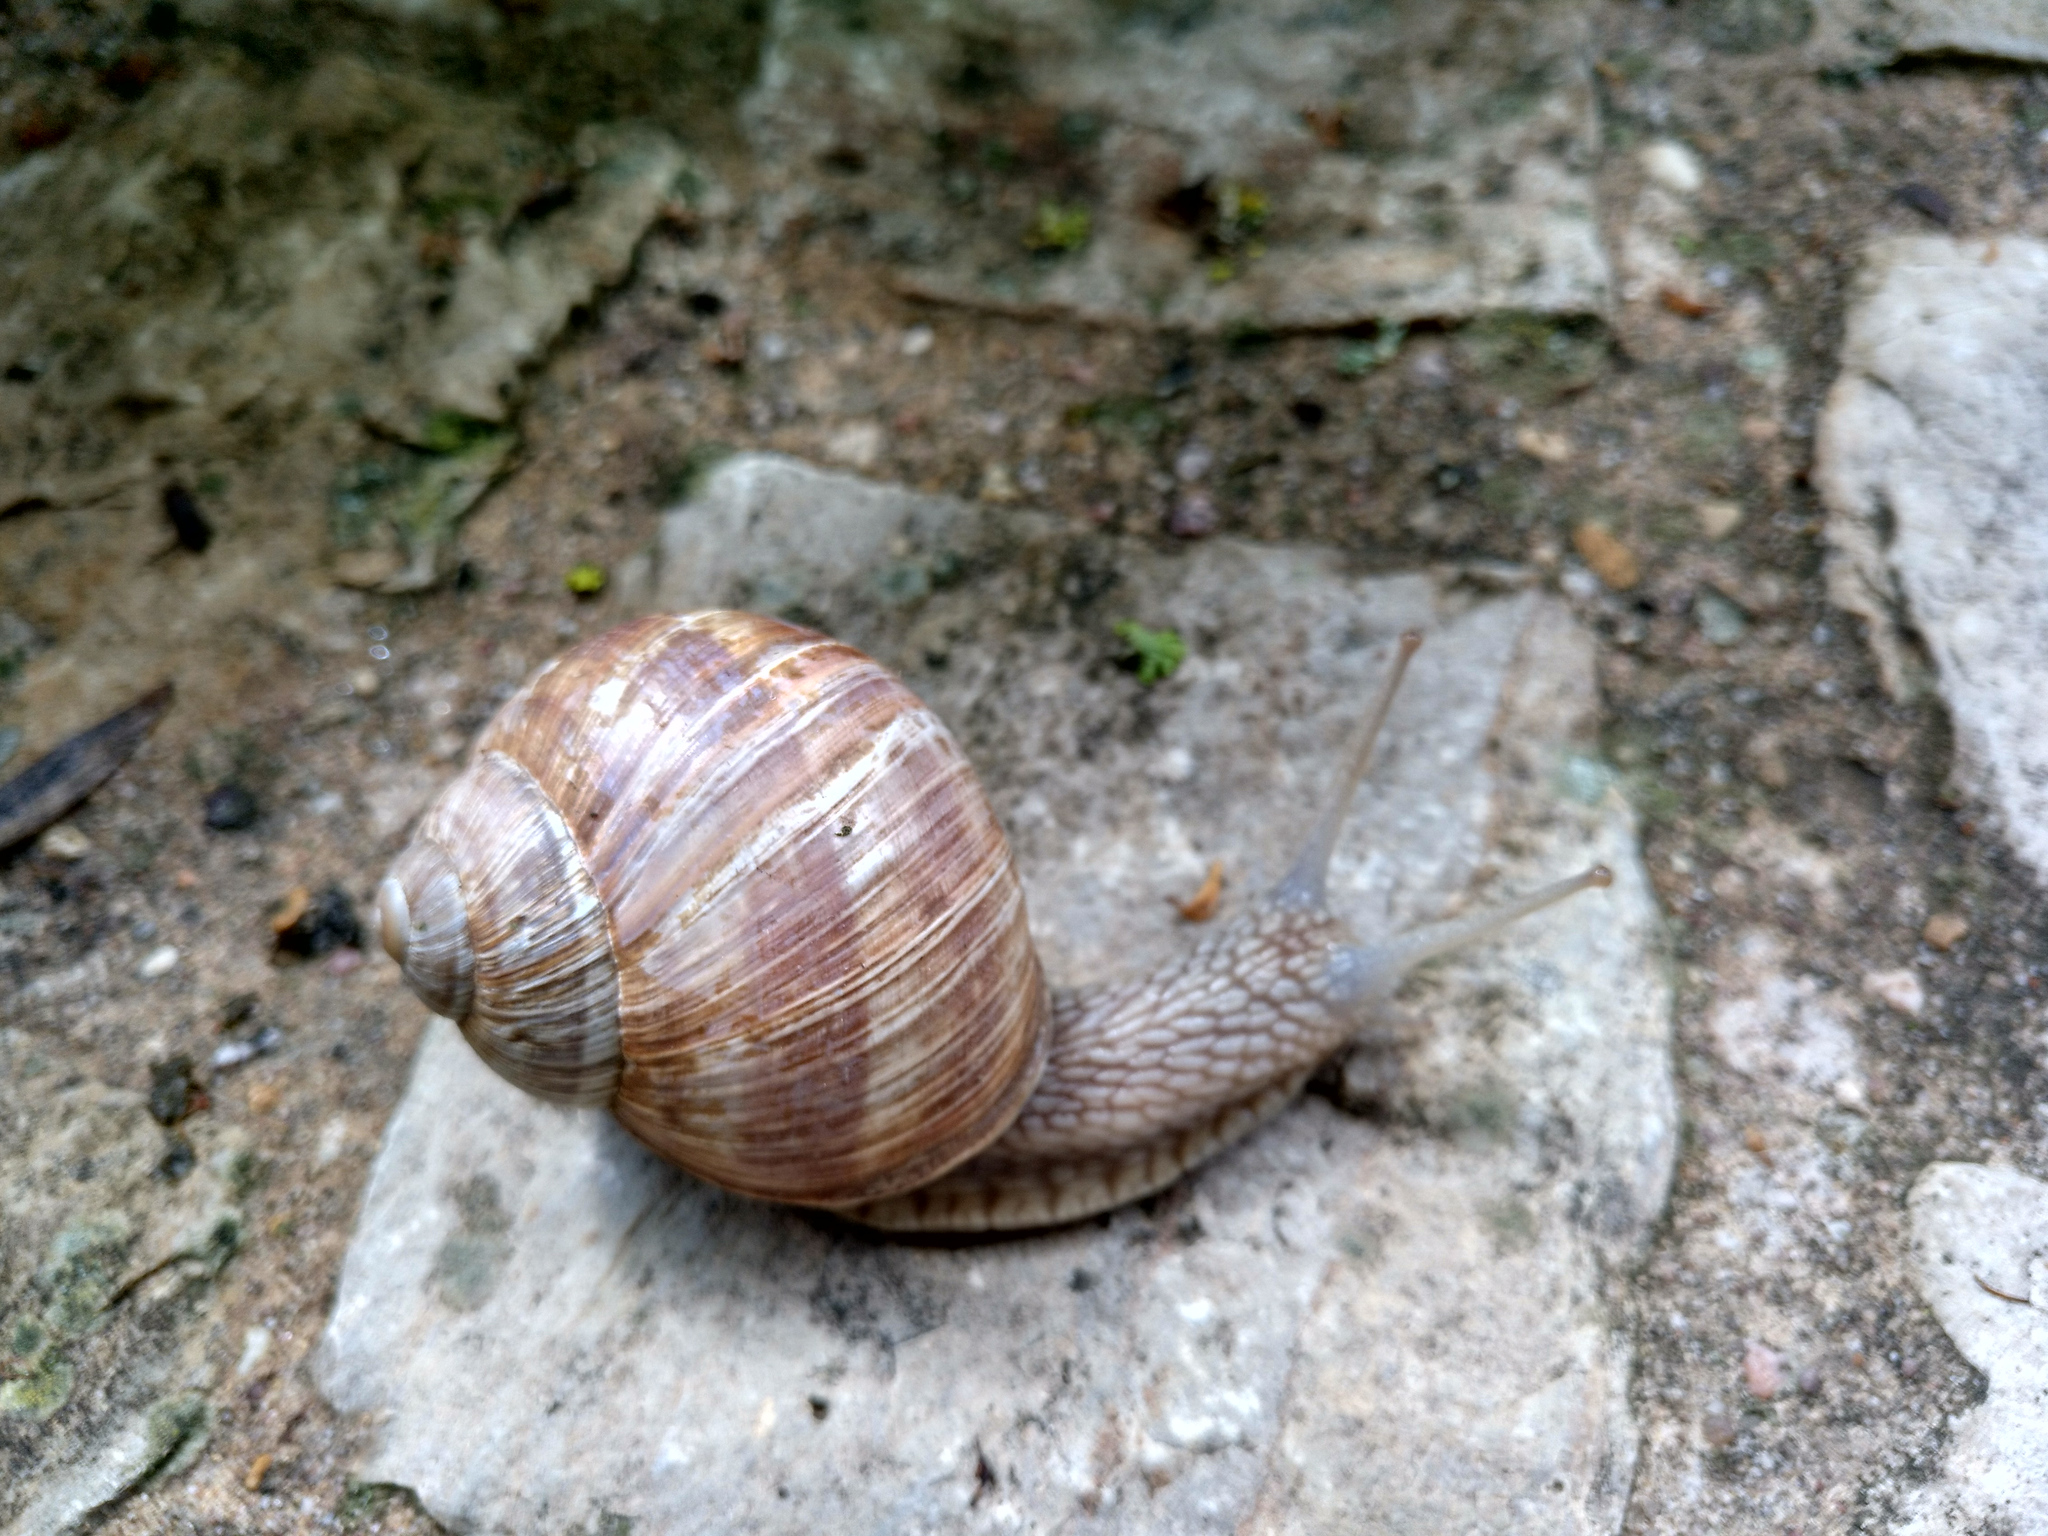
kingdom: Animalia
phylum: Mollusca
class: Gastropoda
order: Stylommatophora
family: Helicidae
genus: Helix
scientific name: Helix pomatia
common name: Roman snail
